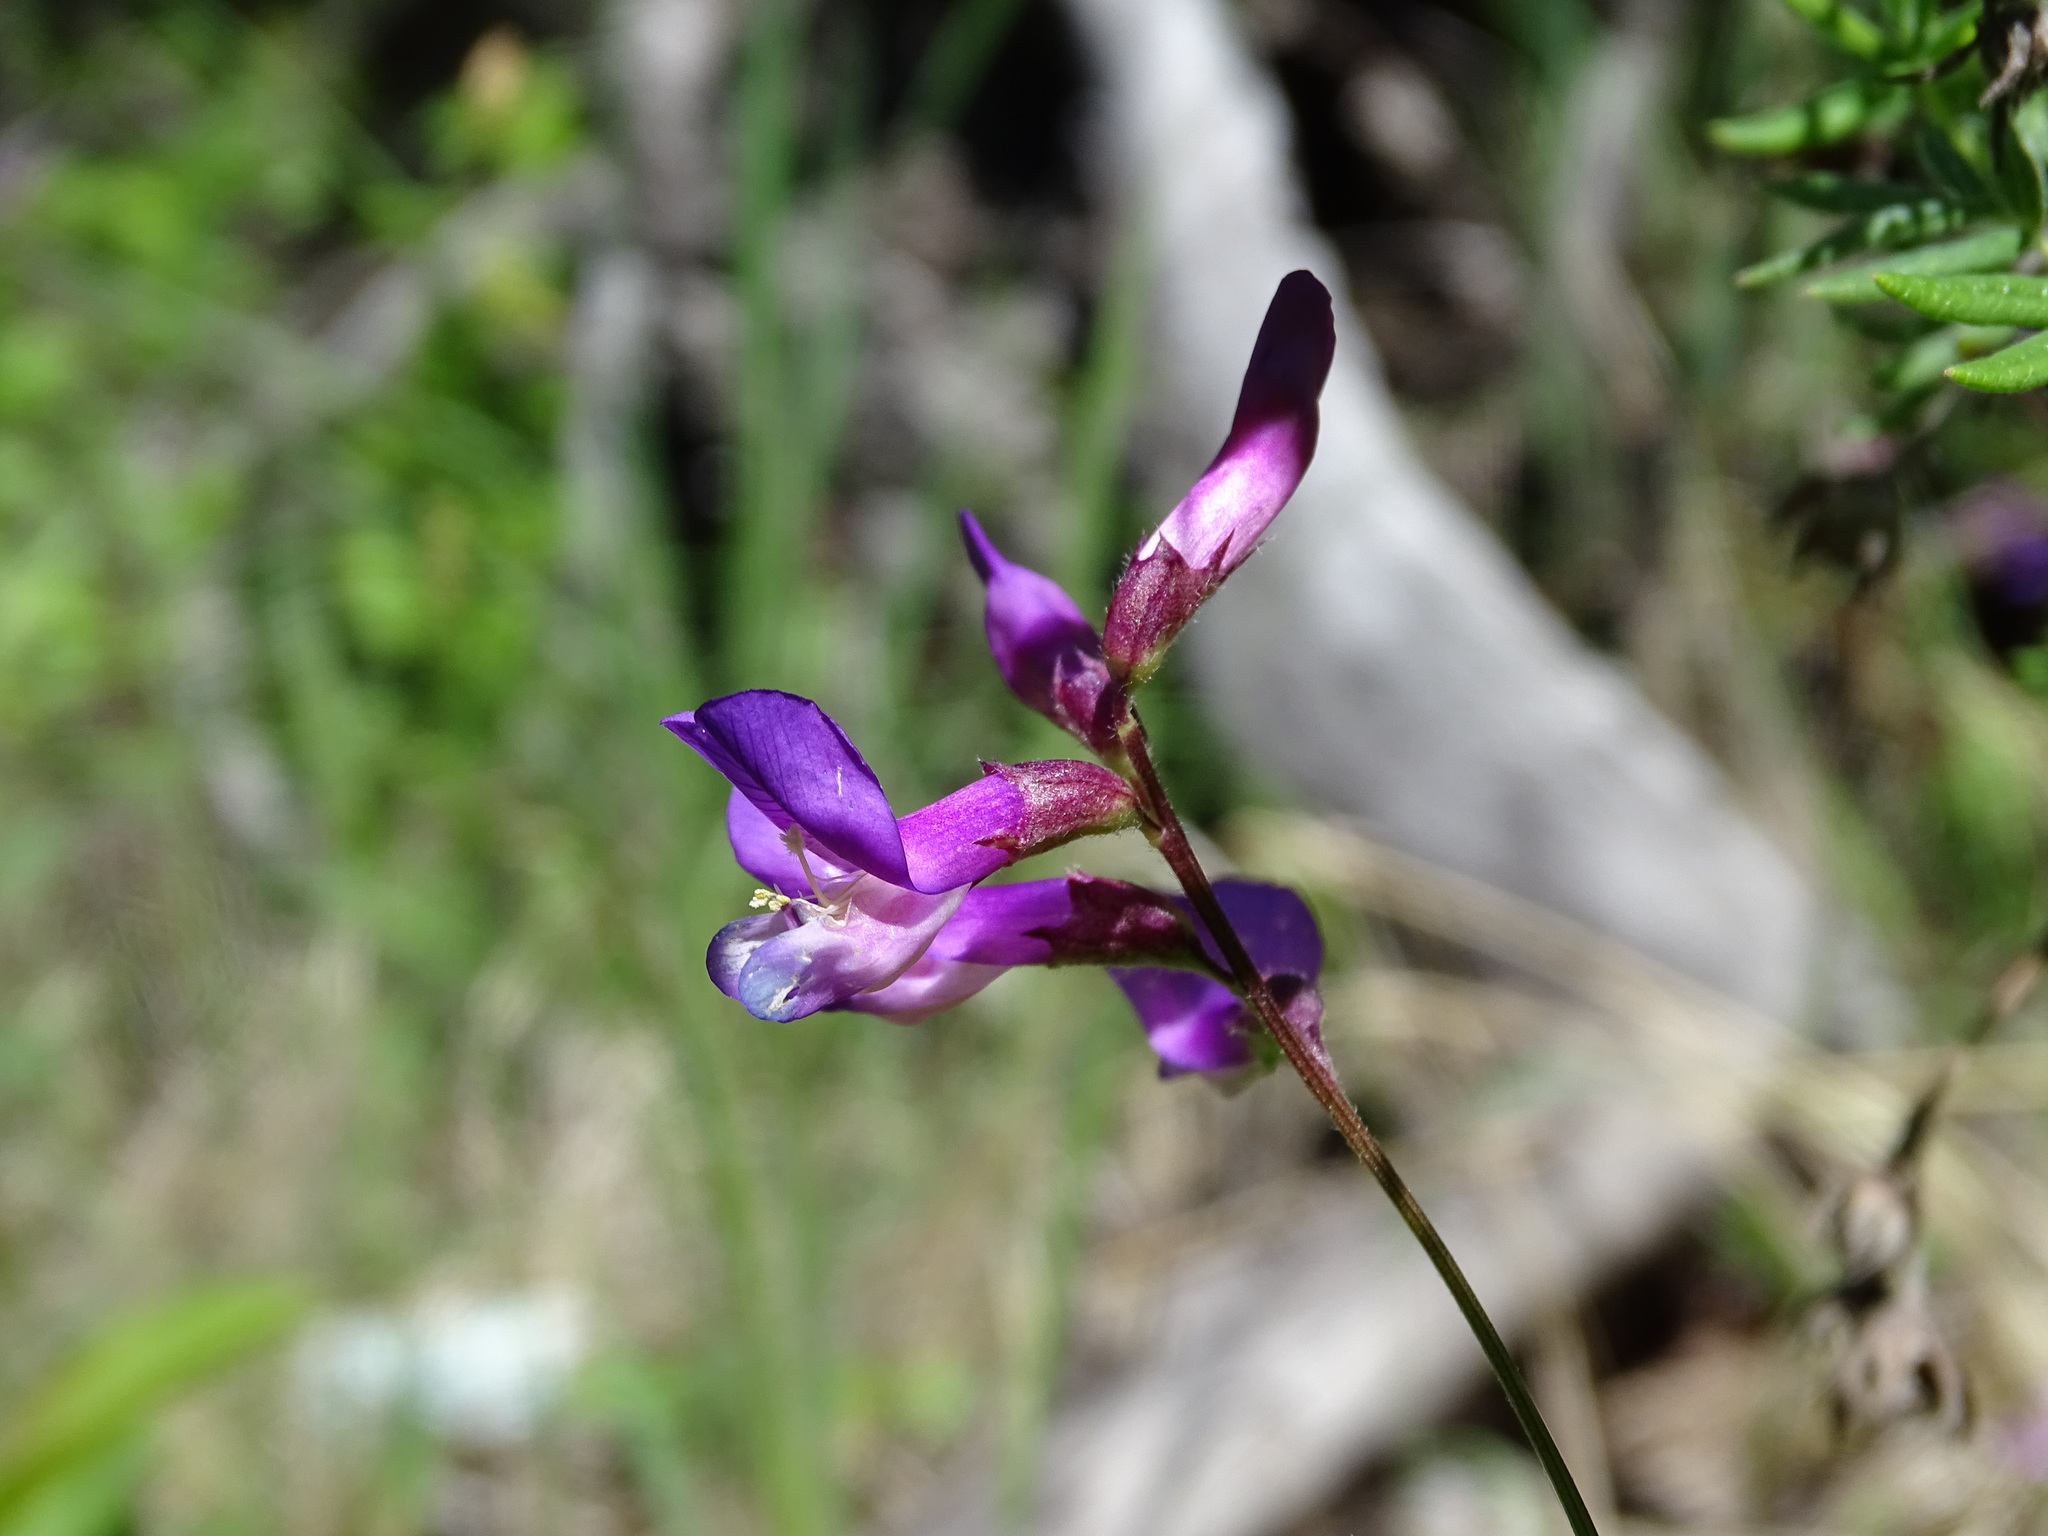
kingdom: Plantae
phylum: Tracheophyta
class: Magnoliopsida
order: Fabales
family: Fabaceae
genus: Vicia
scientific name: Vicia americana
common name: American vetch
